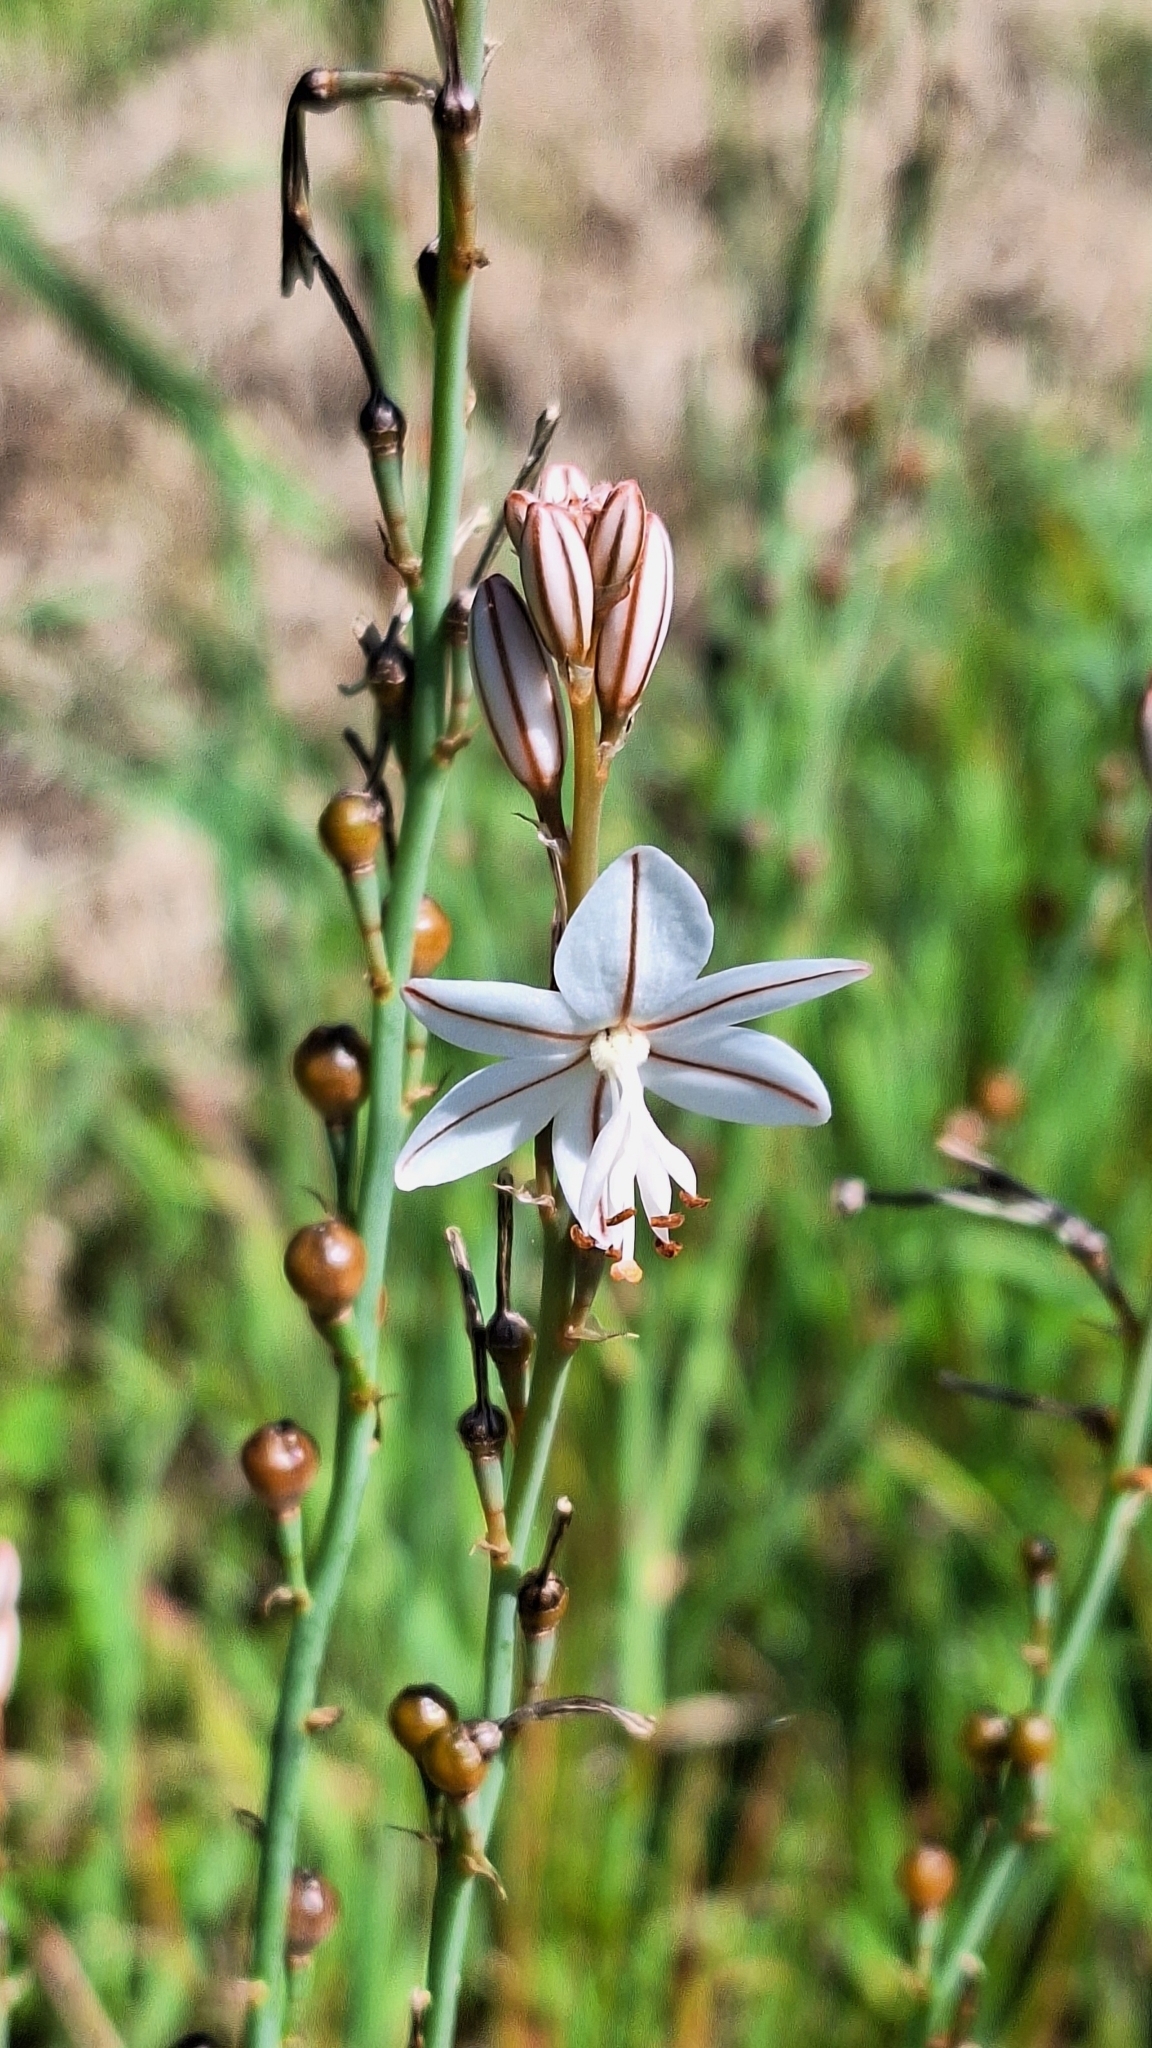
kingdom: Plantae
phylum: Tracheophyta
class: Liliopsida
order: Asparagales
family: Asphodelaceae
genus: Asphodelus
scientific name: Asphodelus fistulosus
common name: Onionweed
